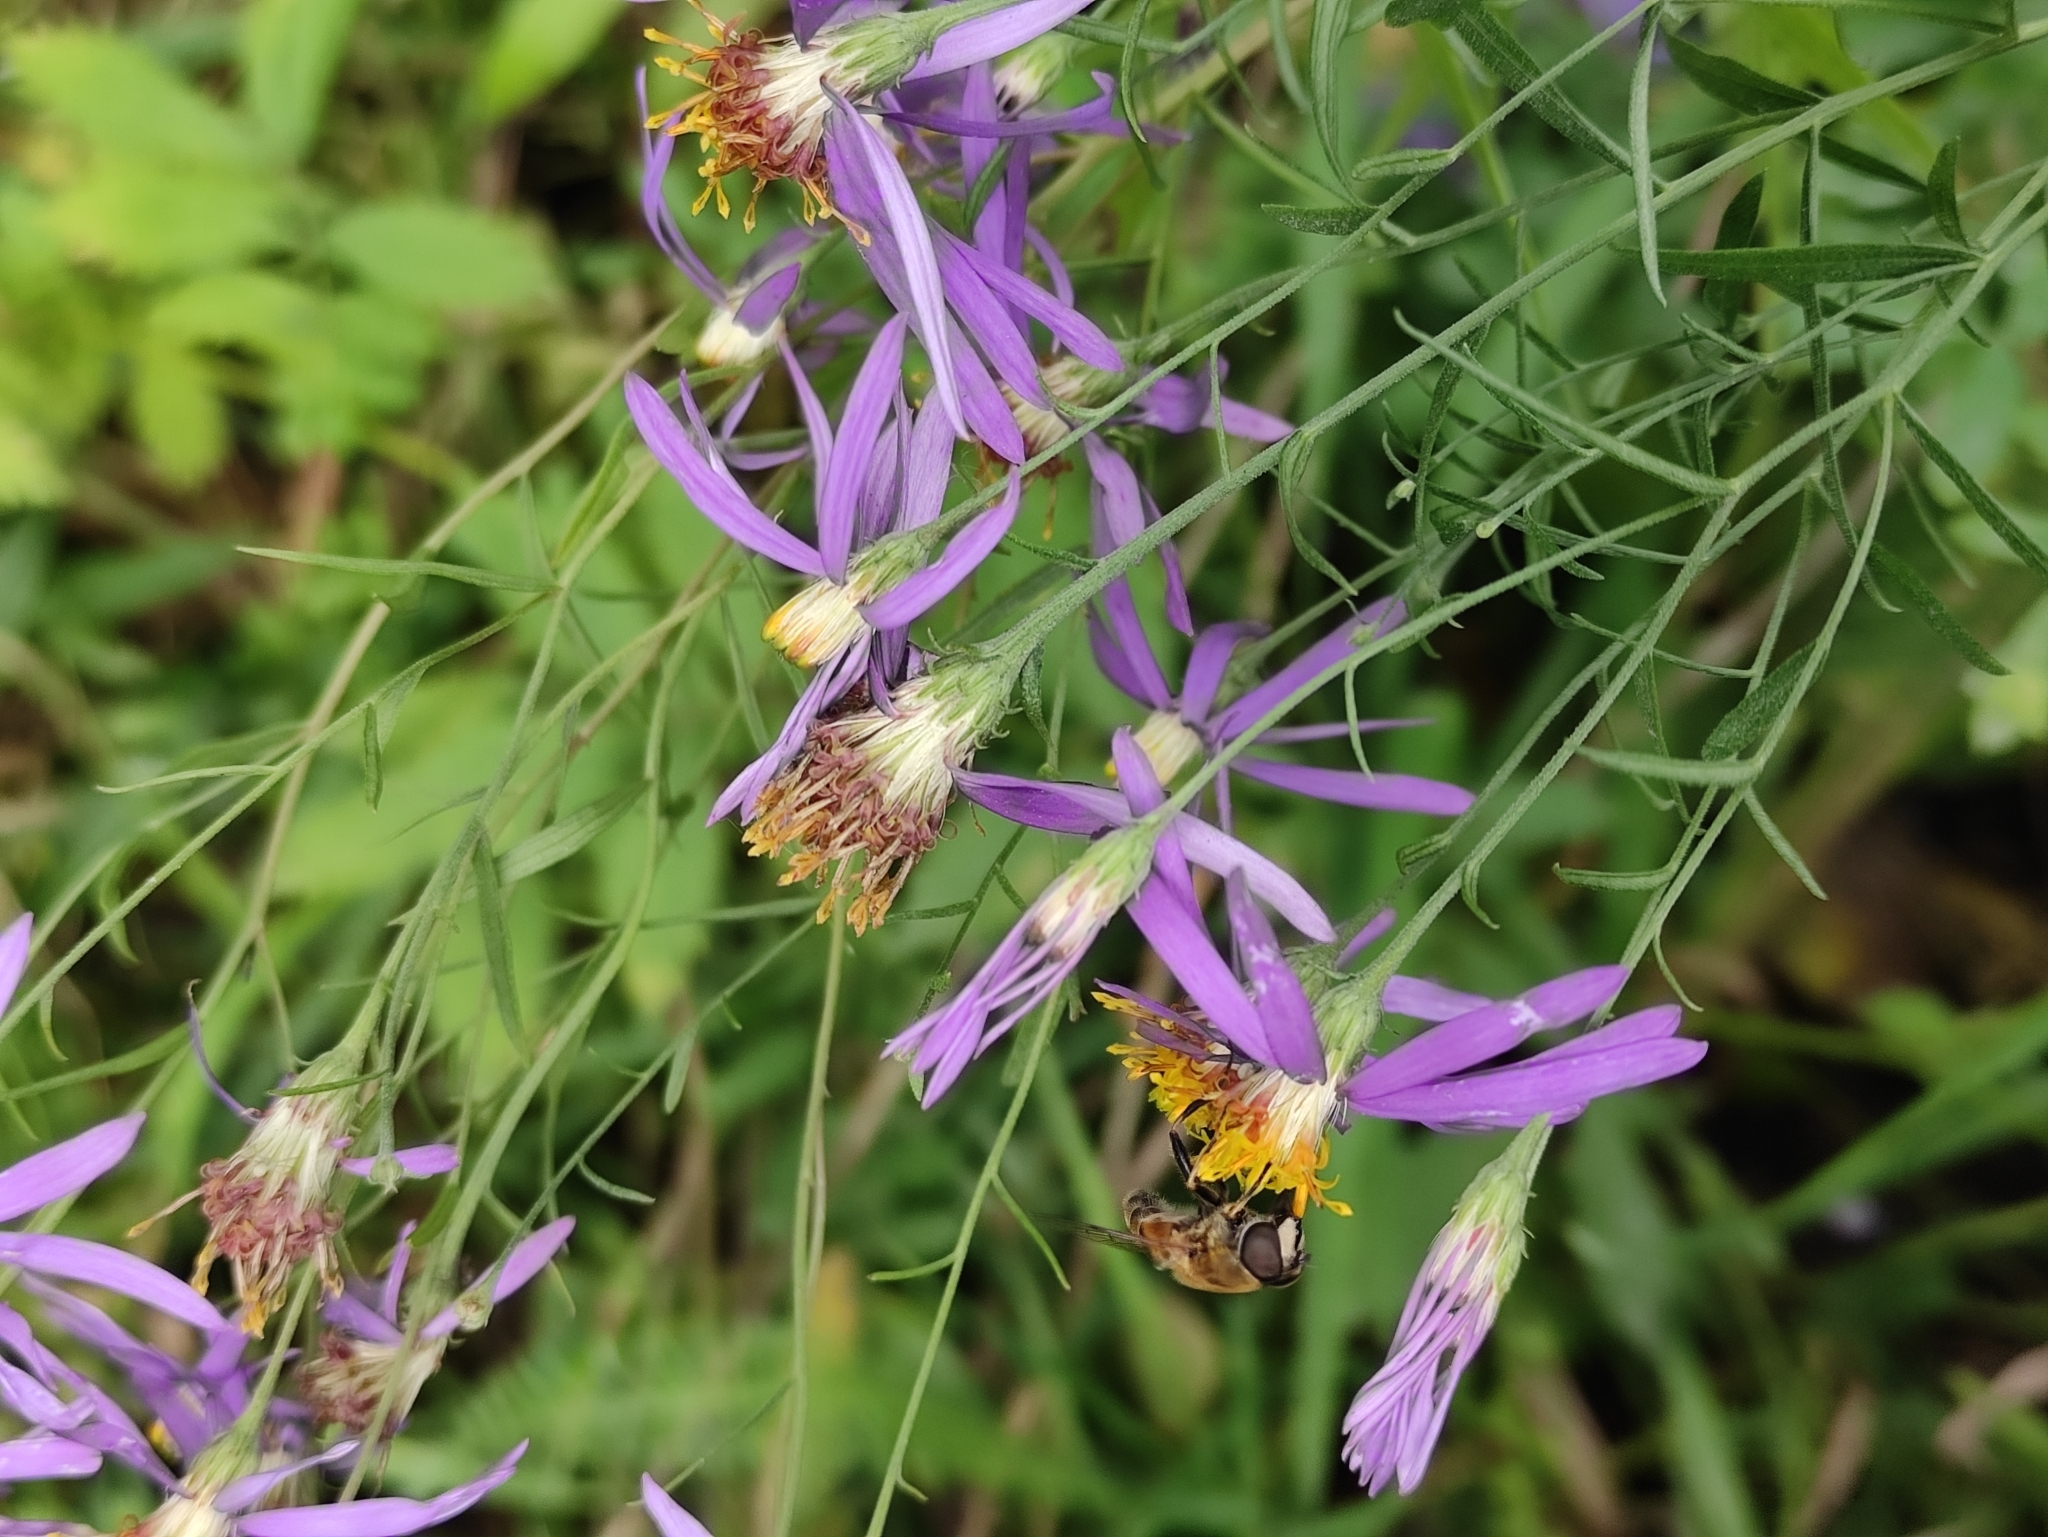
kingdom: Plantae
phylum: Tracheophyta
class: Magnoliopsida
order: Asterales
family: Asteraceae
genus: Galatella
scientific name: Galatella dahurica
